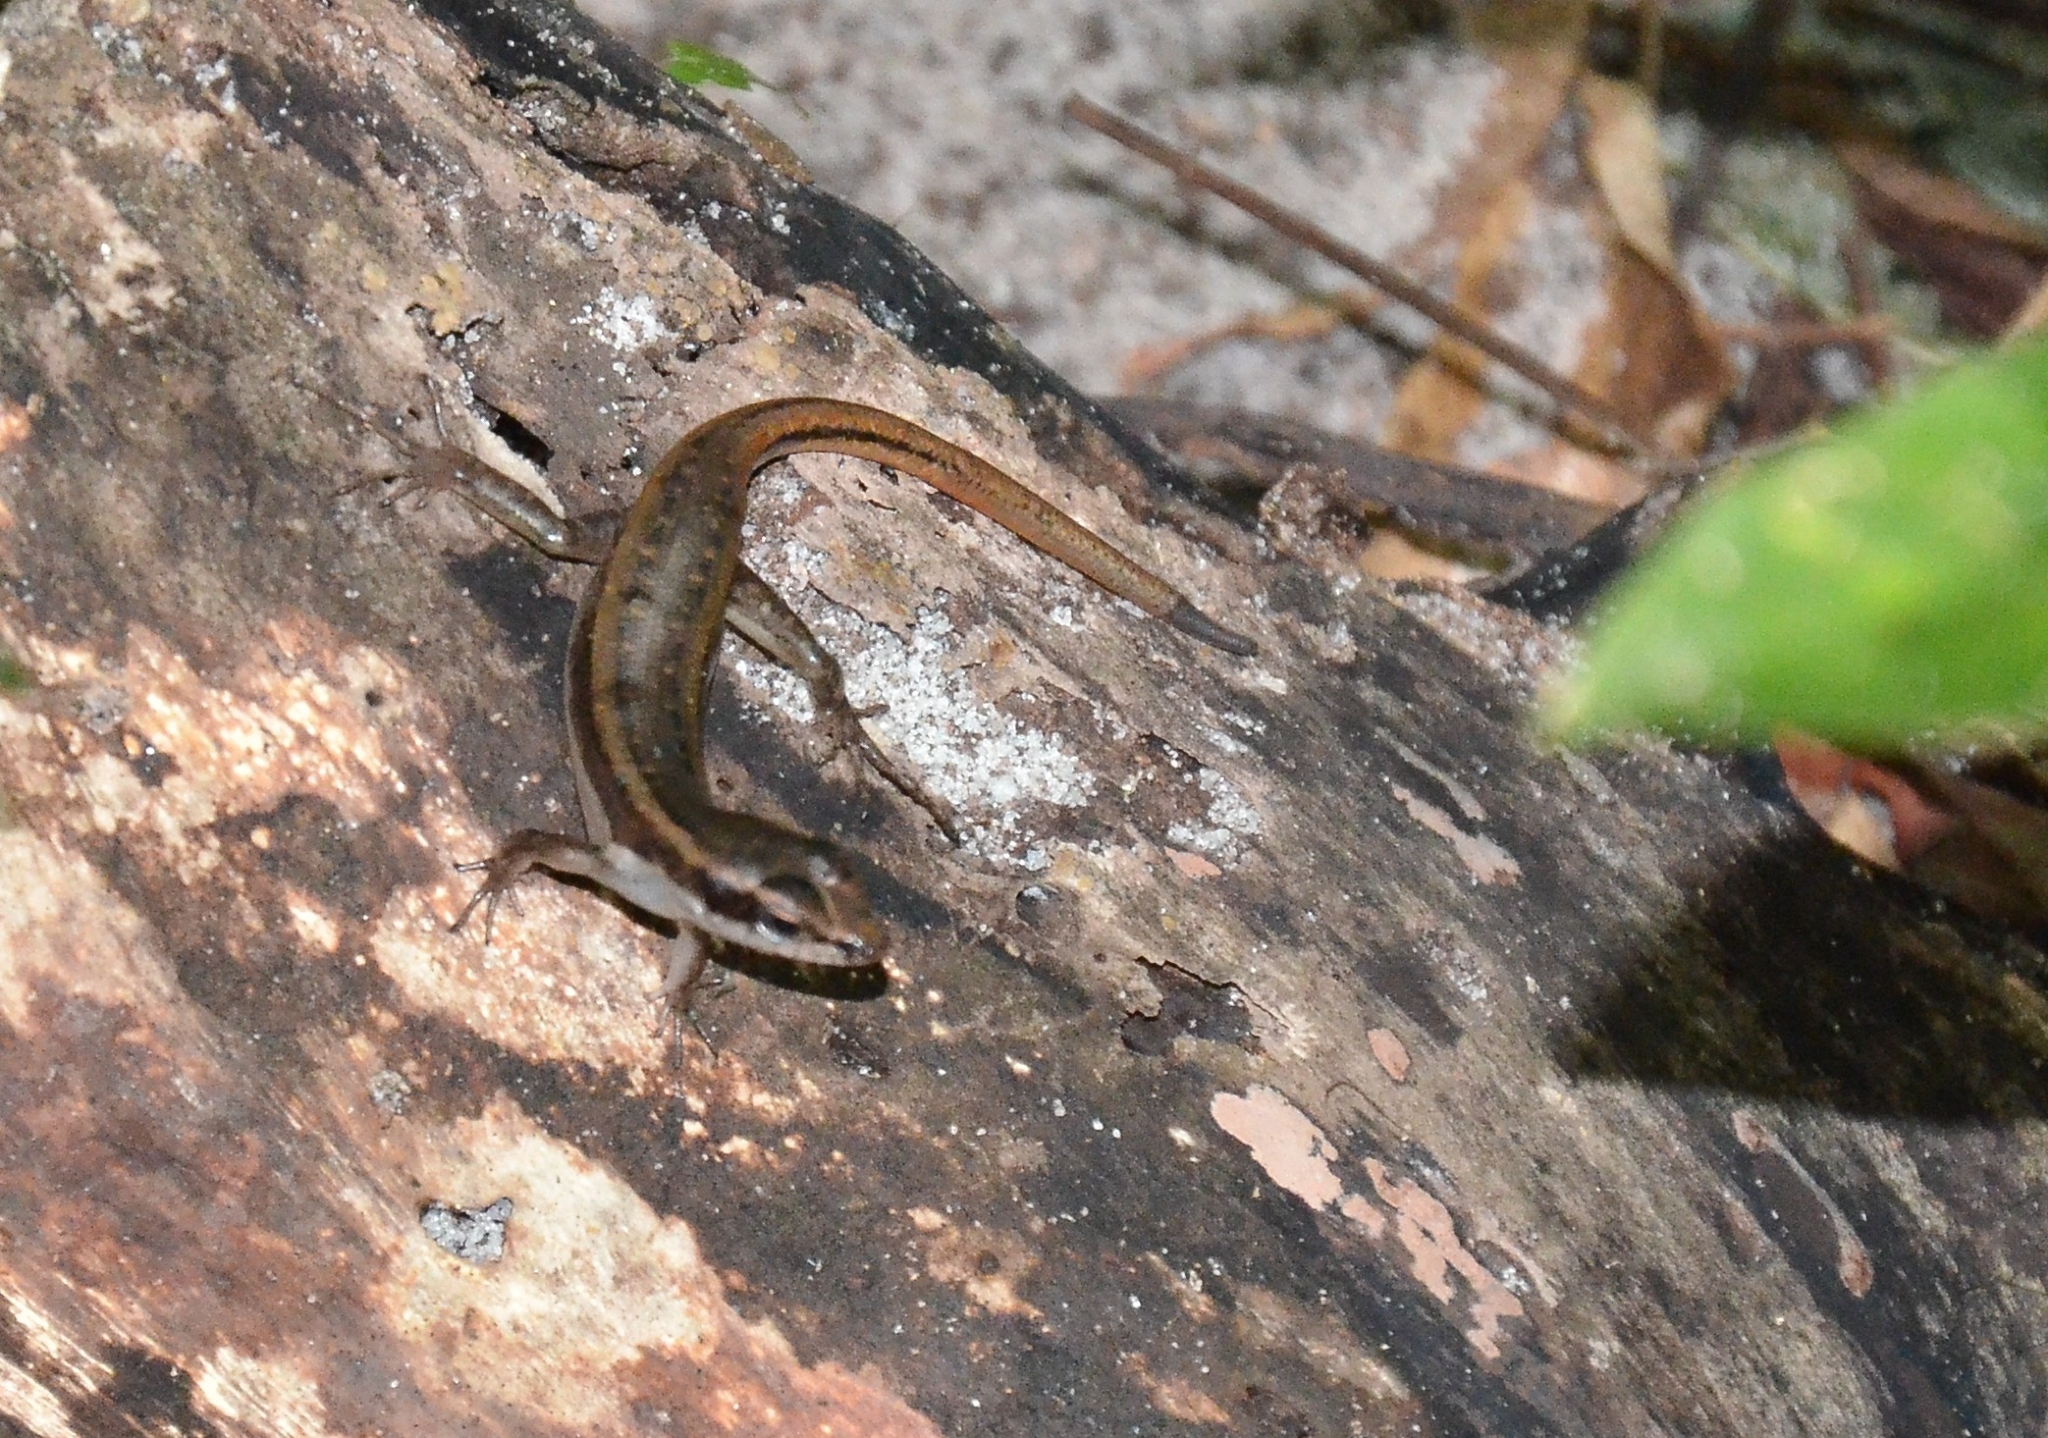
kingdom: Animalia
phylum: Chordata
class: Squamata
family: Scincidae
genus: Sphenomorphus
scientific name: Sphenomorphus dussumieri
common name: Dussumier's forest skink
